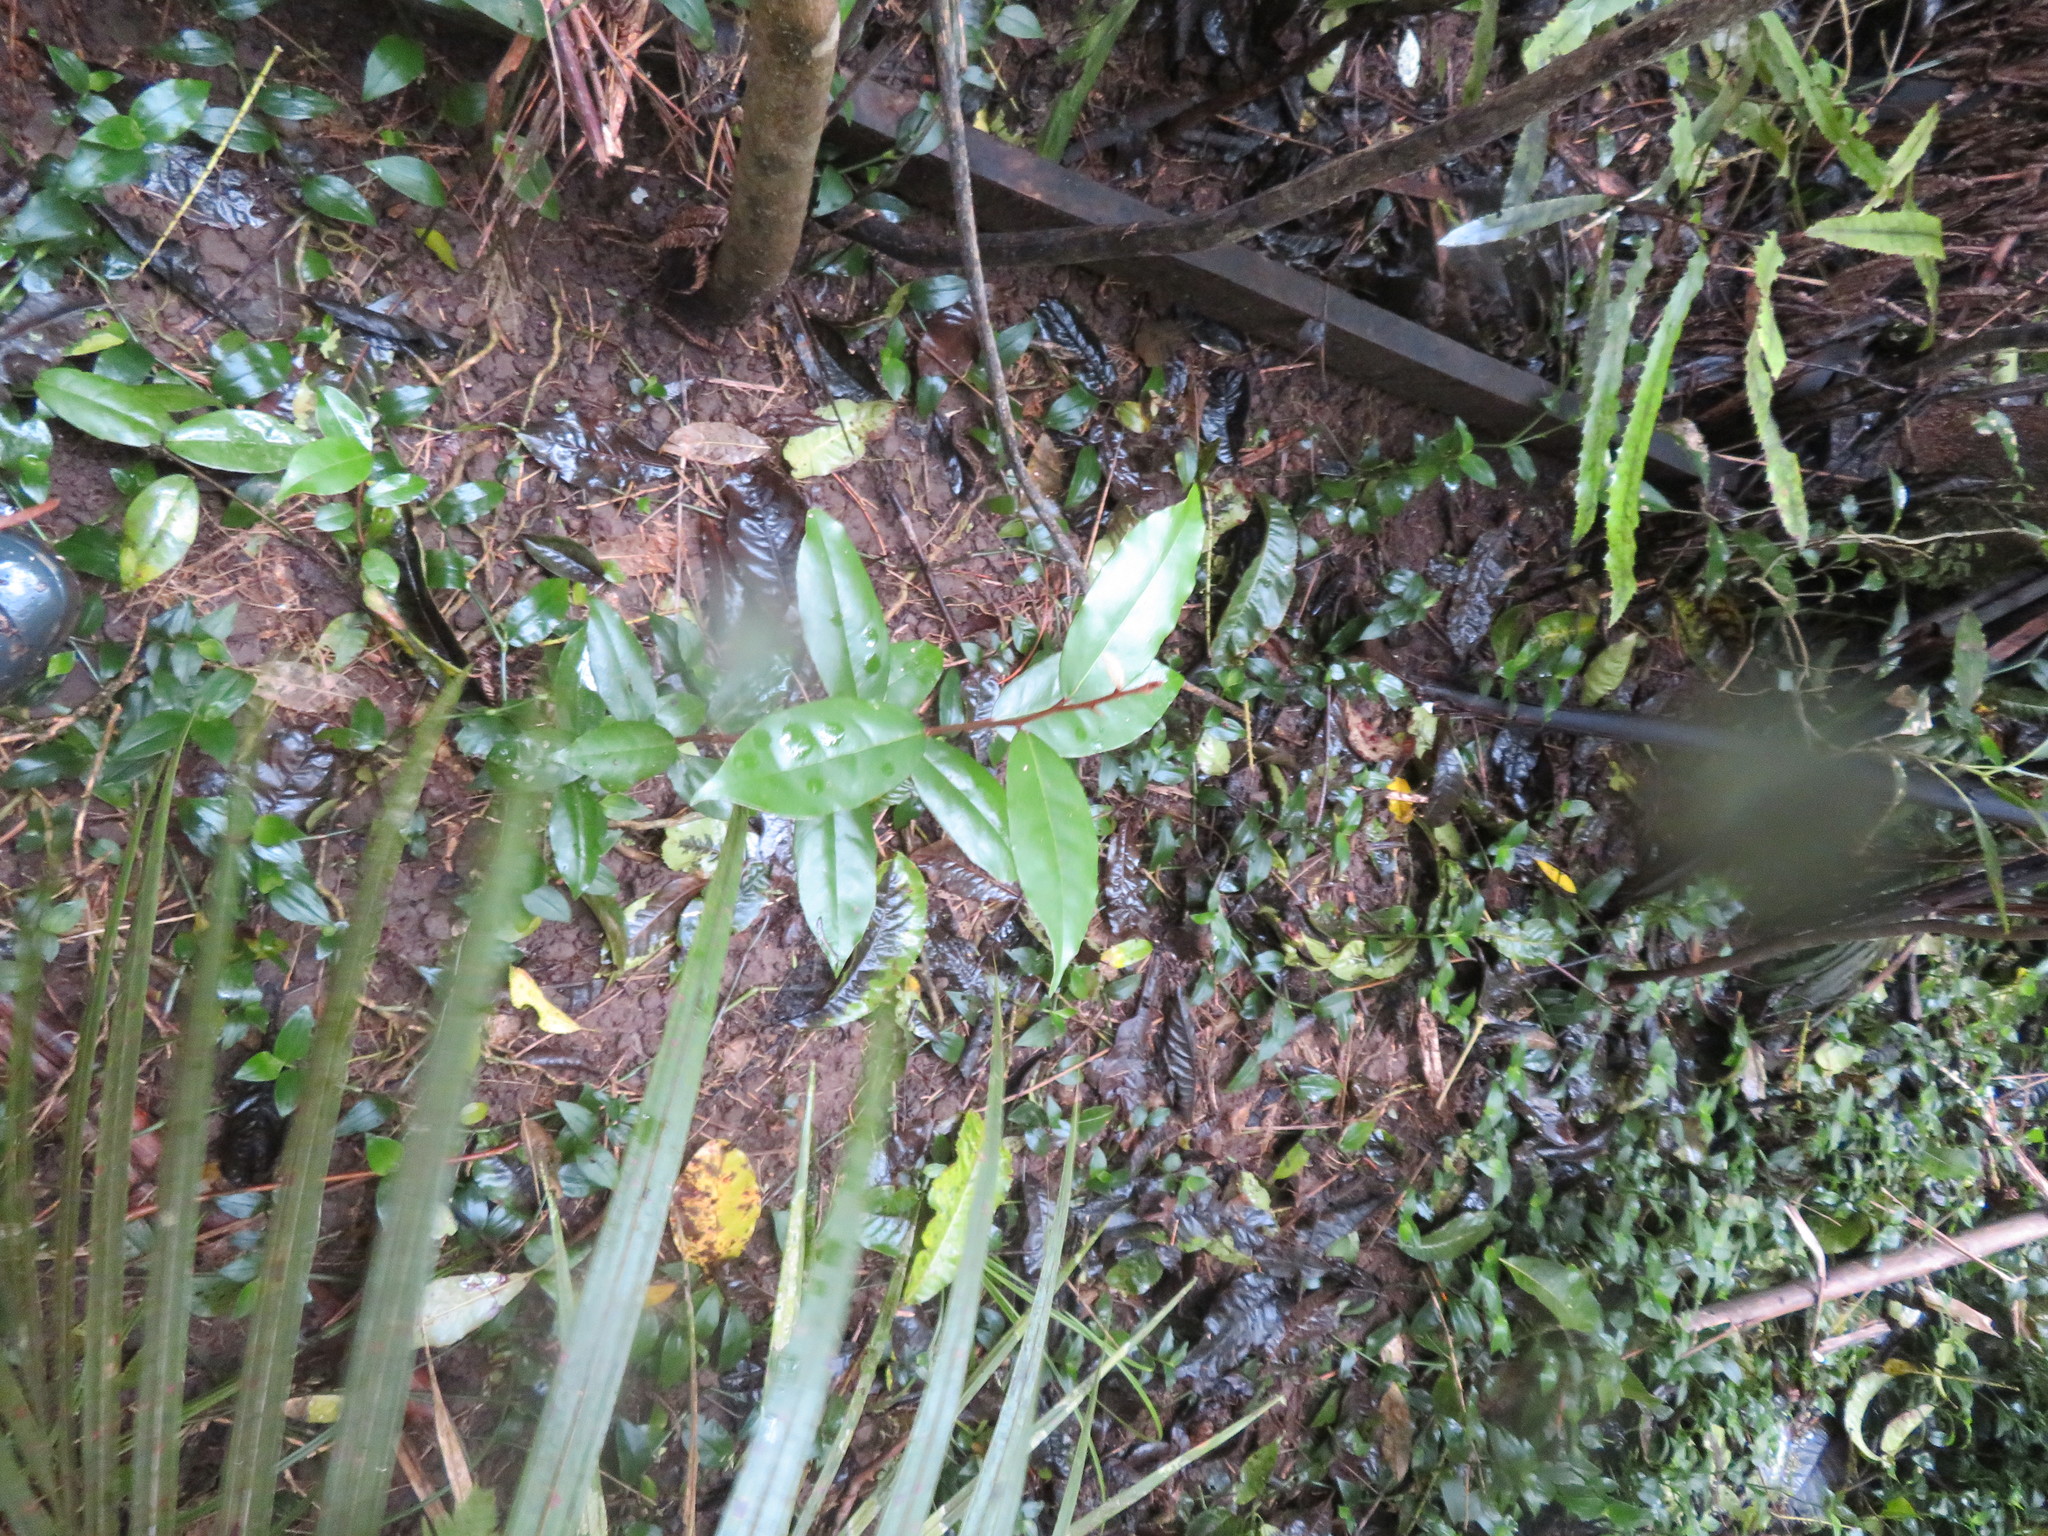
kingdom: Plantae
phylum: Tracheophyta
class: Magnoliopsida
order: Rosales
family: Elaeagnaceae
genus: Elaeagnus
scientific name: Elaeagnus reflexa
